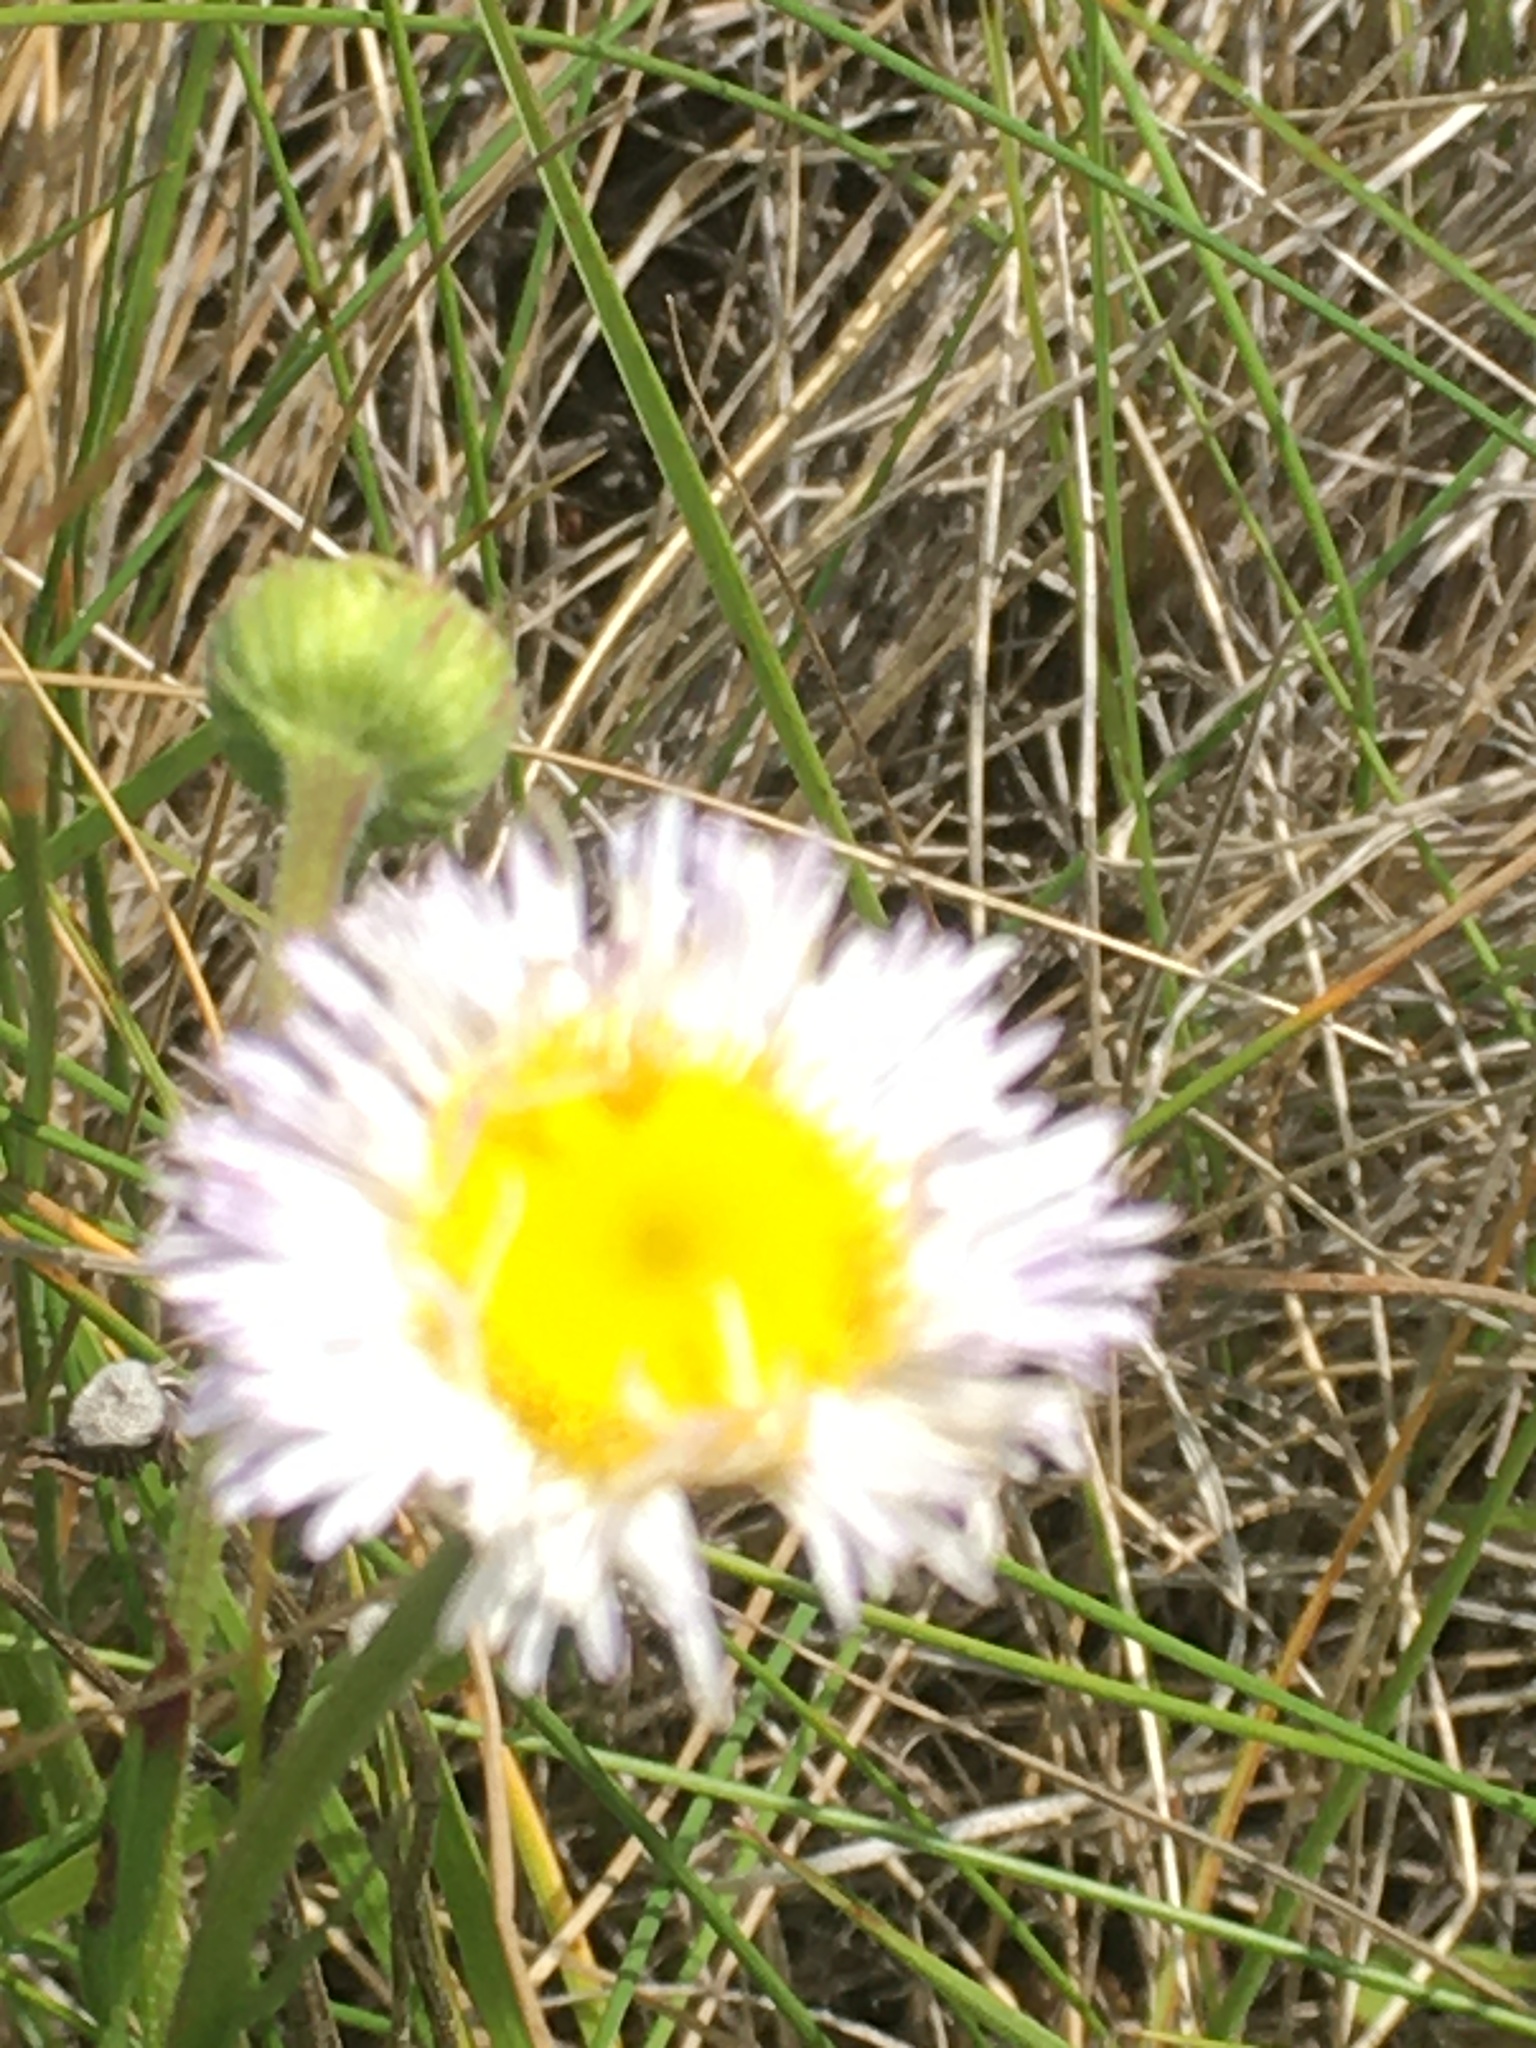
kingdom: Plantae
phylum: Tracheophyta
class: Magnoliopsida
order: Asterales
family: Asteraceae
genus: Erigeron
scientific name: Erigeron glabellus
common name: Smooth fleabane
